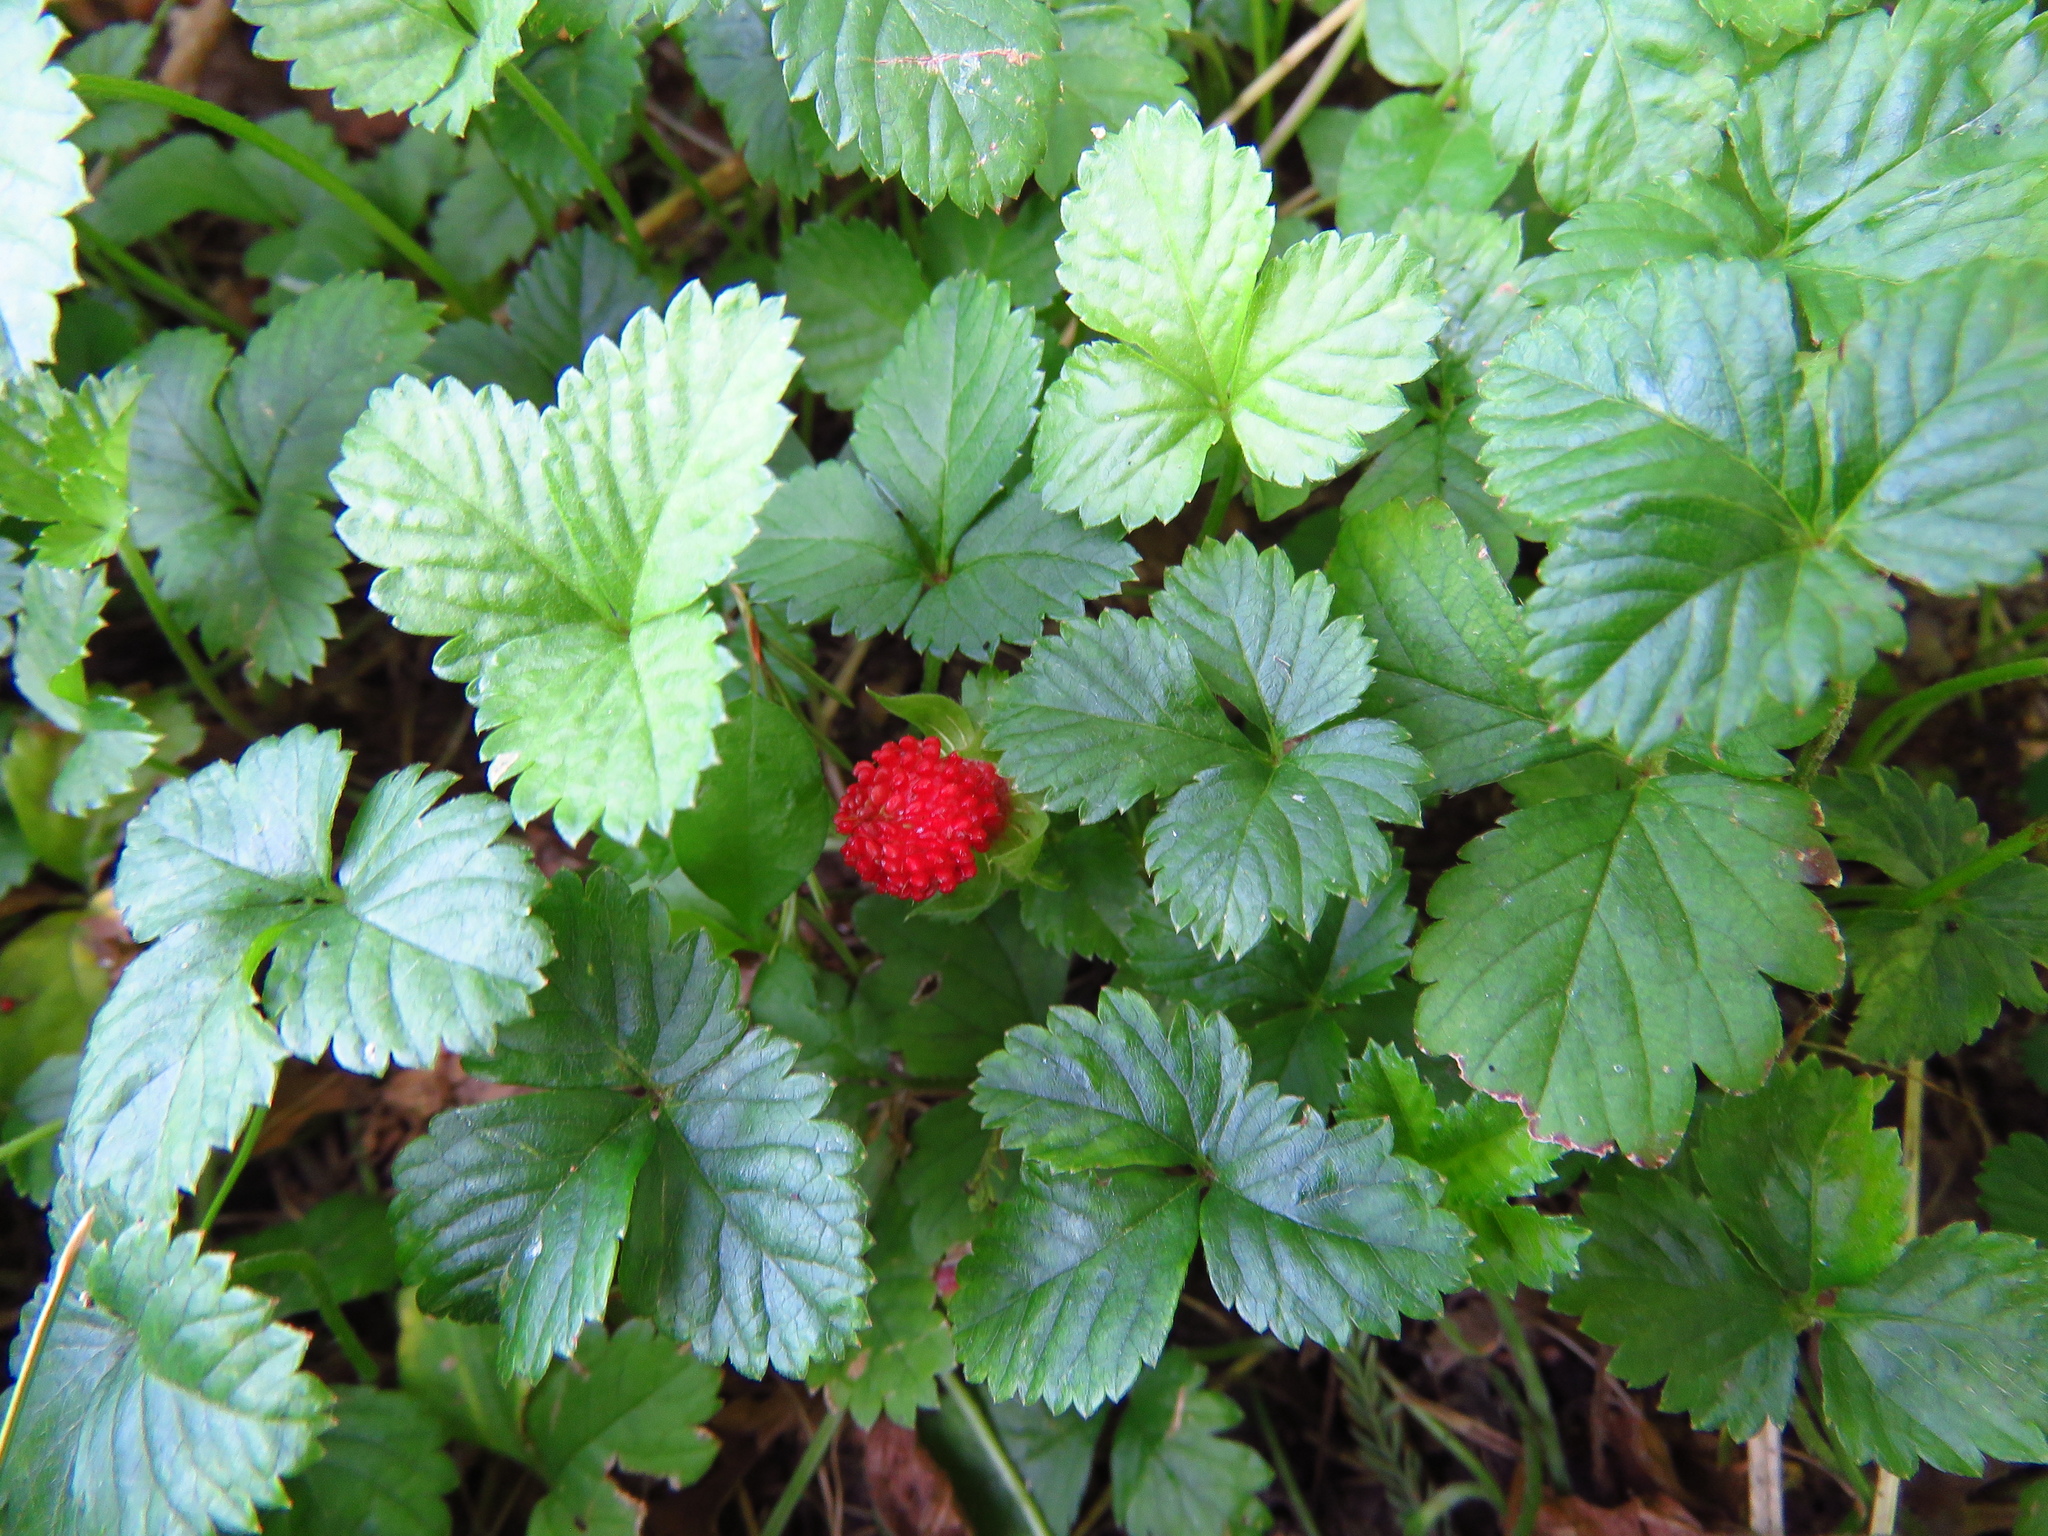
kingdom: Plantae
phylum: Tracheophyta
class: Magnoliopsida
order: Rosales
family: Rosaceae
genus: Potentilla
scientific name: Potentilla indica
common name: Yellow-flowered strawberry
